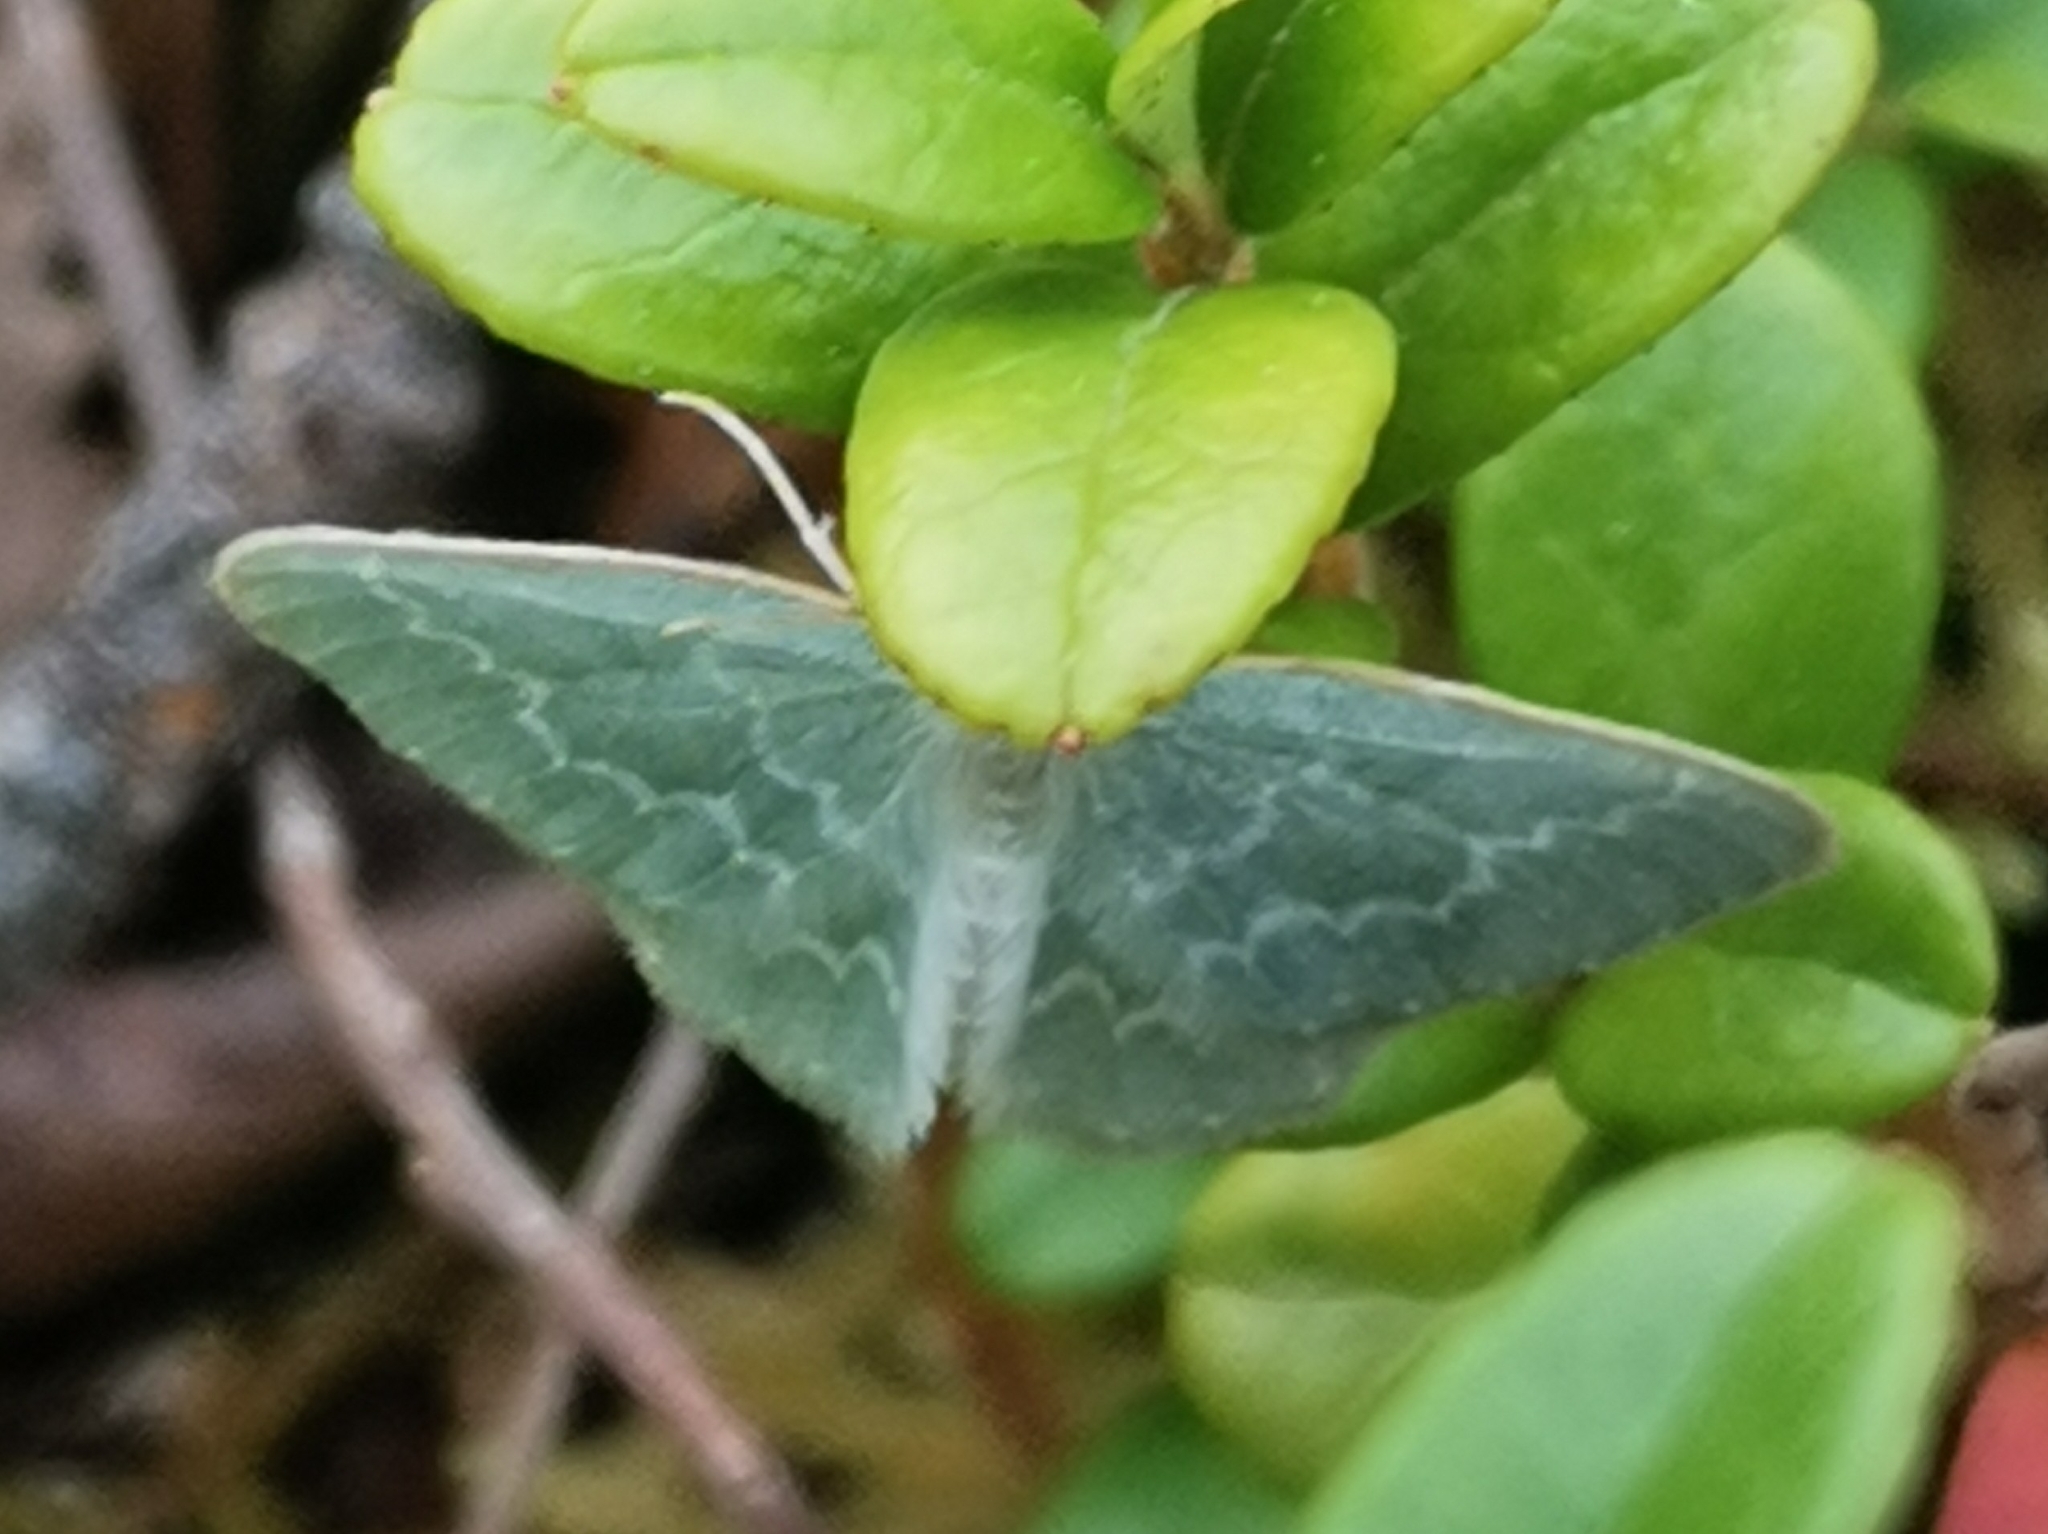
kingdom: Animalia
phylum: Arthropoda
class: Insecta
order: Lepidoptera
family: Geometridae
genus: Jodis
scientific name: Jodis putata
